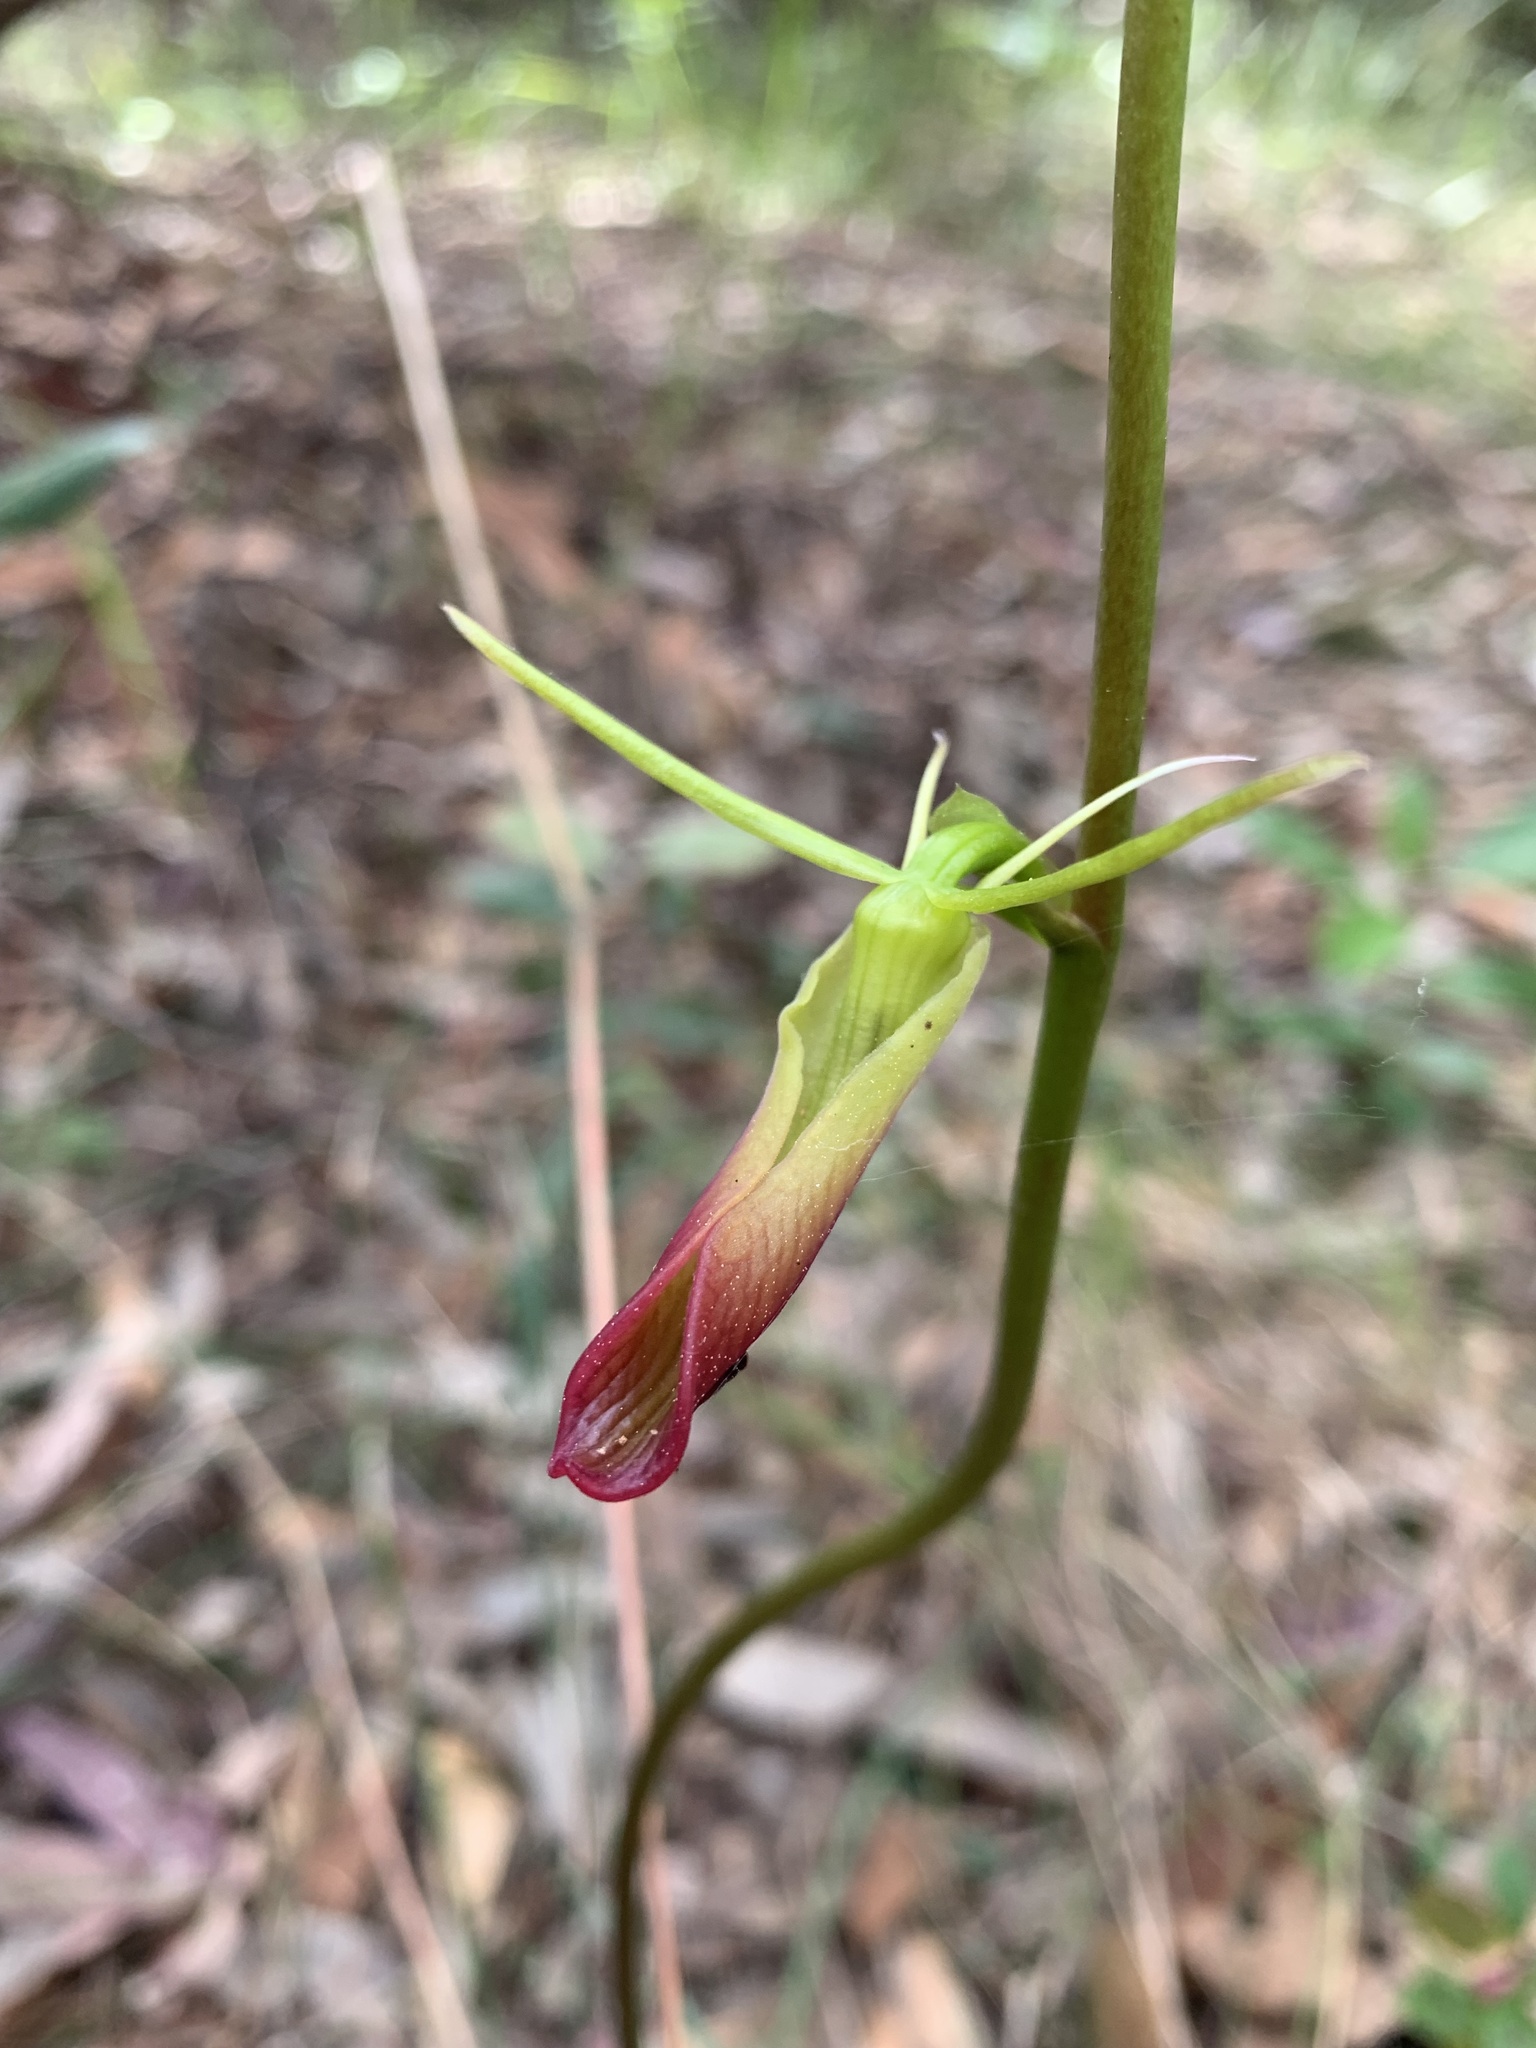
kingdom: Plantae
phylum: Tracheophyta
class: Liliopsida
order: Asparagales
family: Orchidaceae
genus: Cryptostylis
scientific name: Cryptostylis subulata
